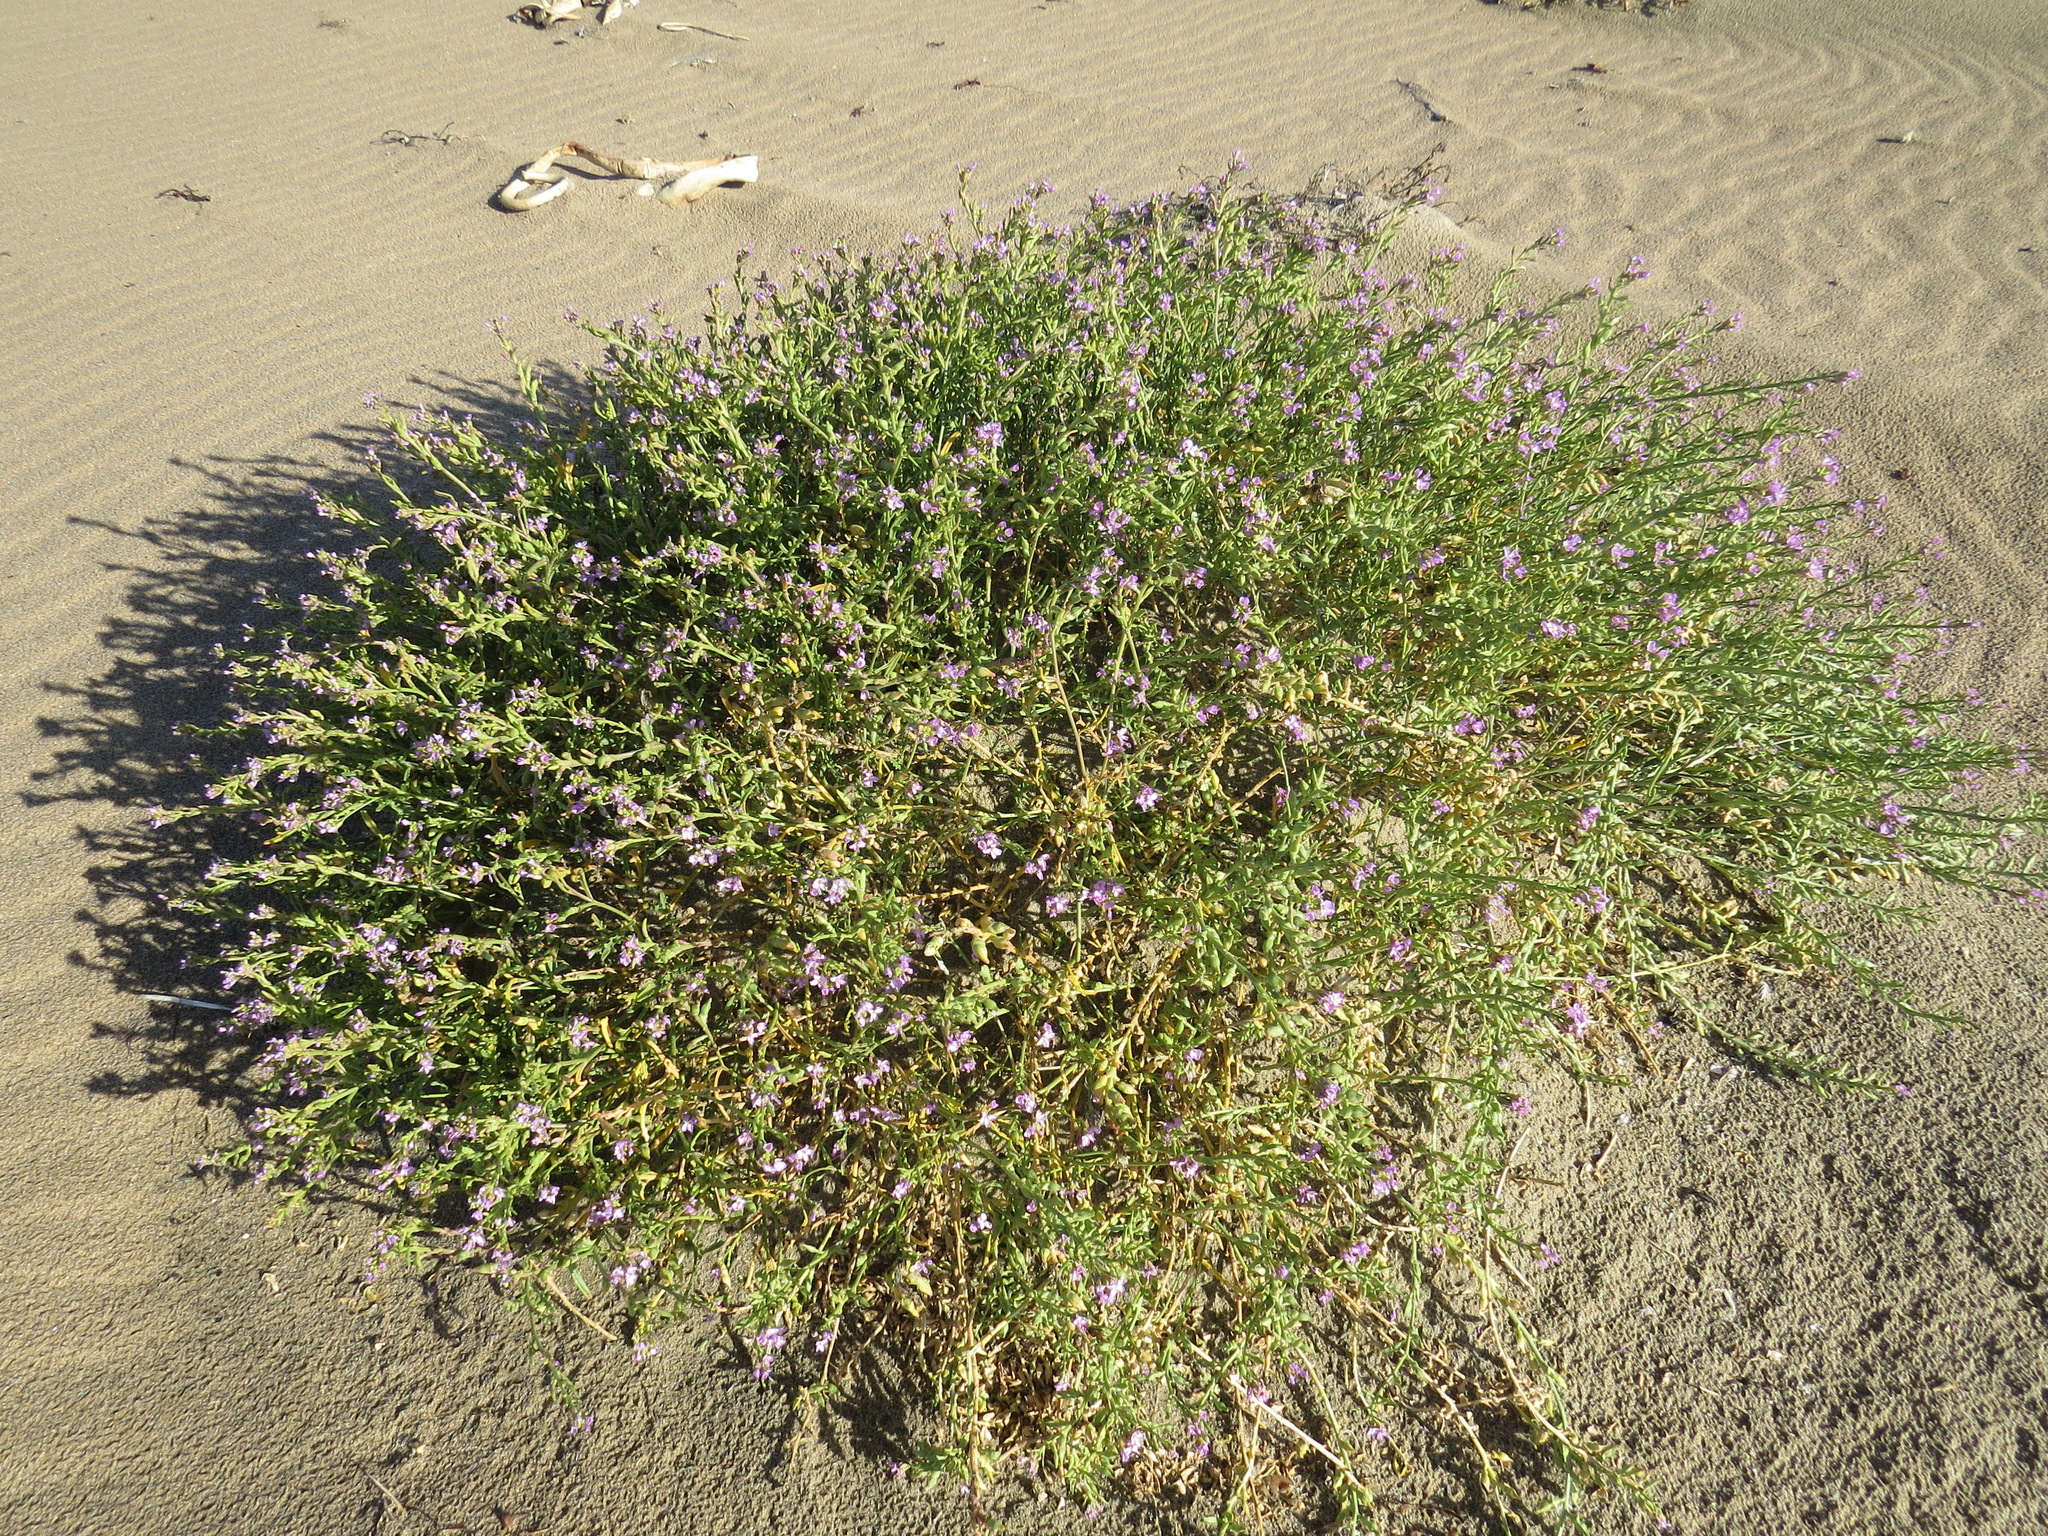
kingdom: Plantae
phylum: Tracheophyta
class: Magnoliopsida
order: Brassicales
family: Brassicaceae
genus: Cakile
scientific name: Cakile maritima
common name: Sea rocket
